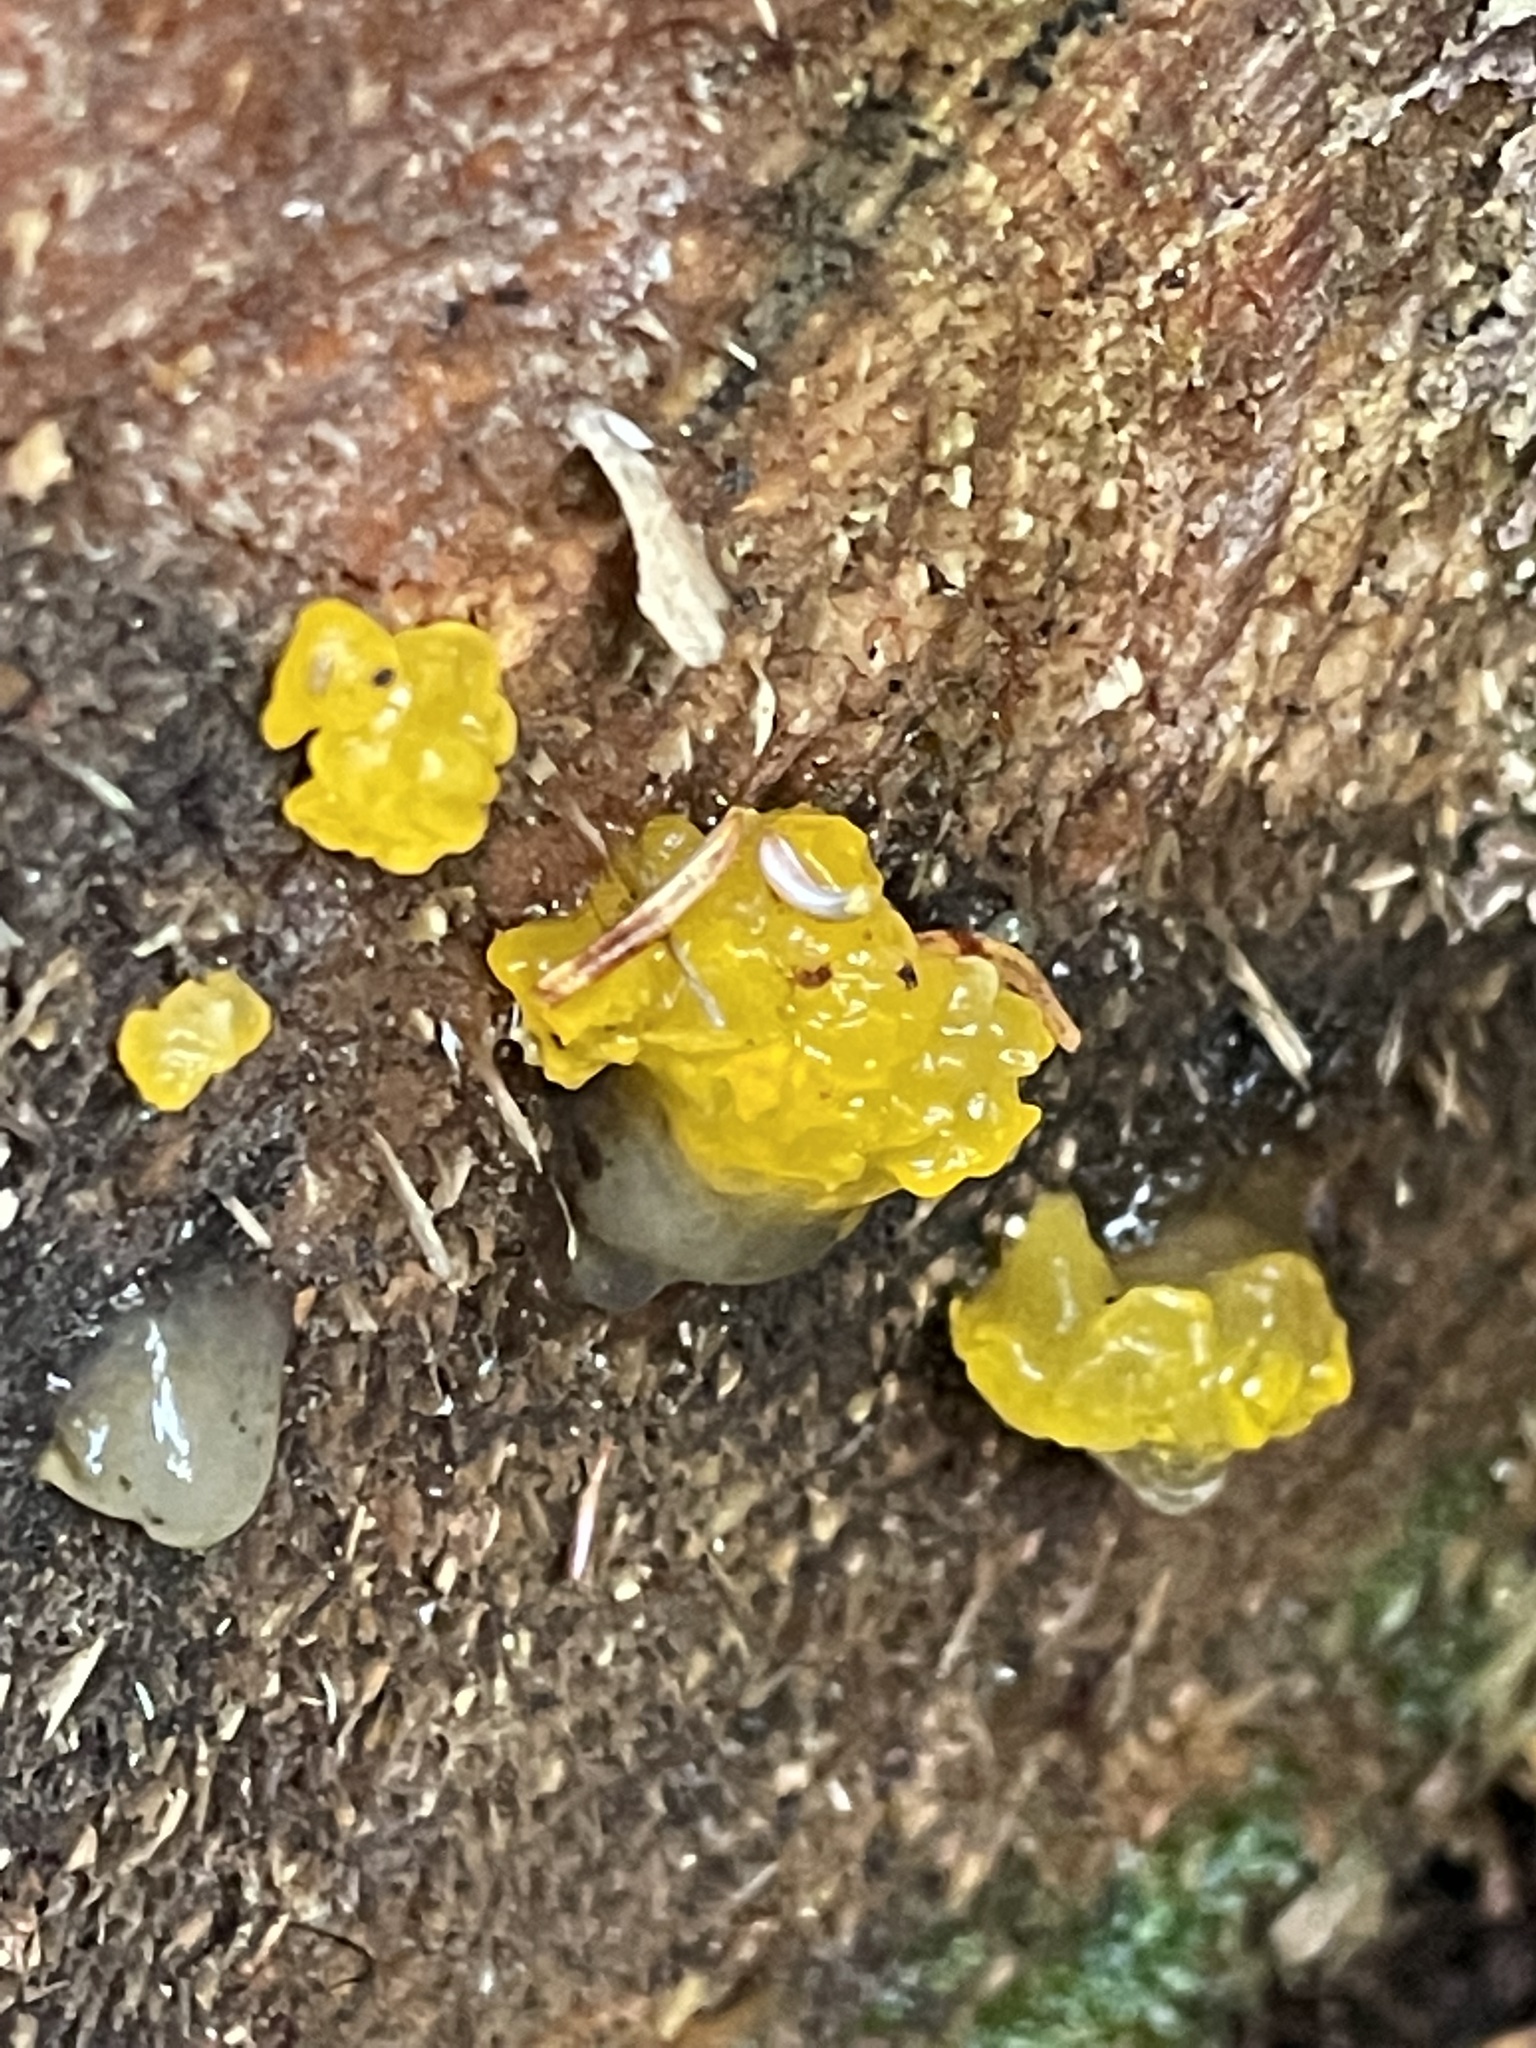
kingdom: Fungi
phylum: Basidiomycota
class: Dacrymycetes
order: Dacrymycetales
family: Dacrymycetaceae
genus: Dacrymyces
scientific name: Dacrymyces chrysospermus
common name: Orange jelly spot
